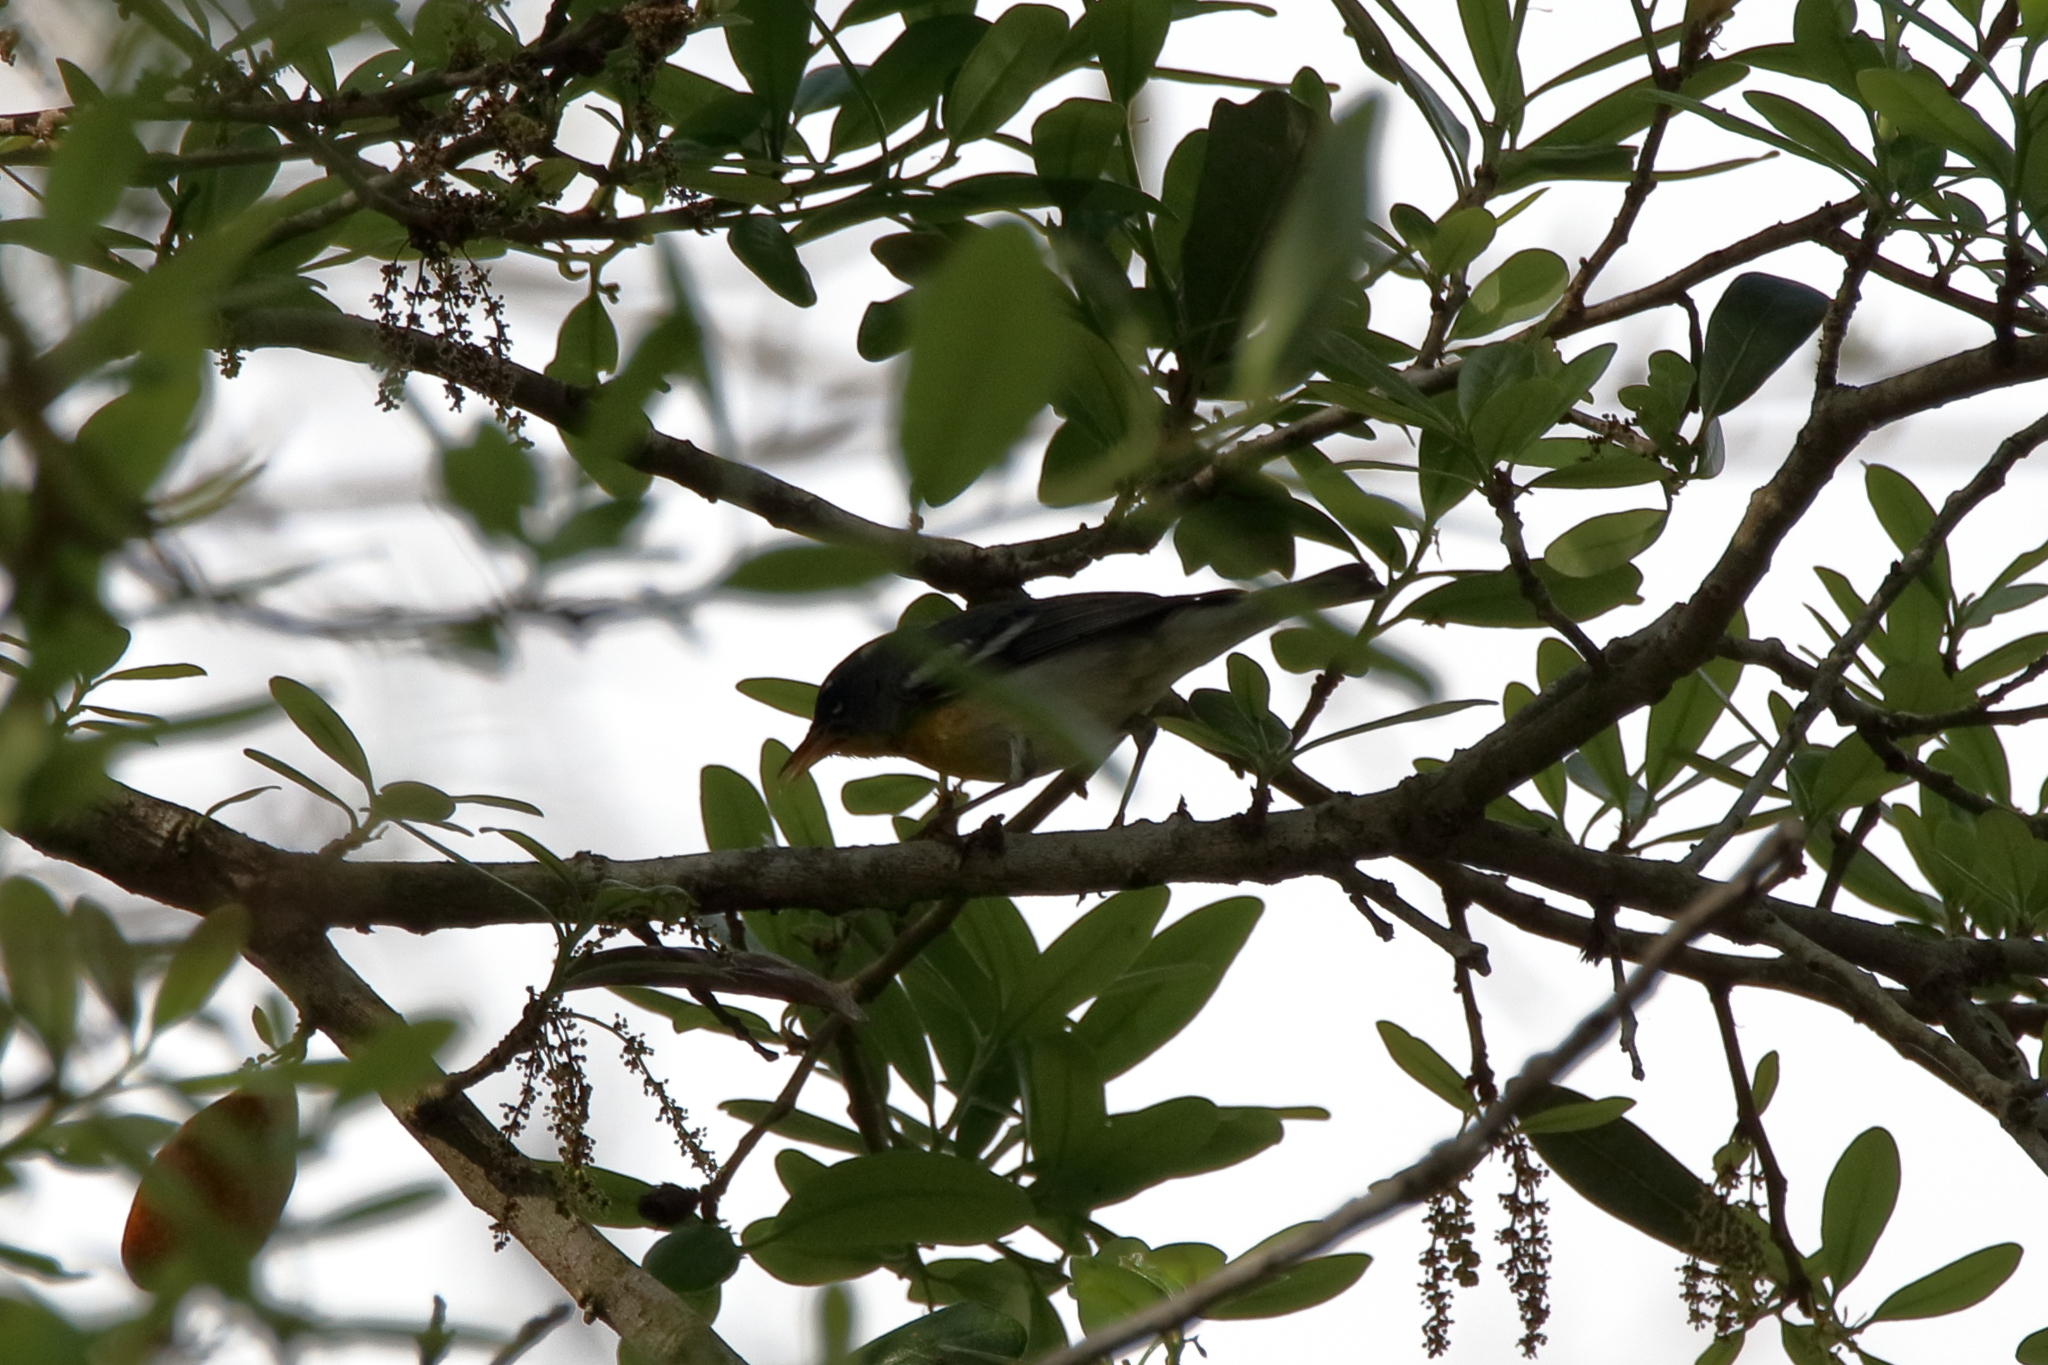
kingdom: Animalia
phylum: Chordata
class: Aves
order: Passeriformes
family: Parulidae
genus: Setophaga
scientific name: Setophaga americana
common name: Northern parula
